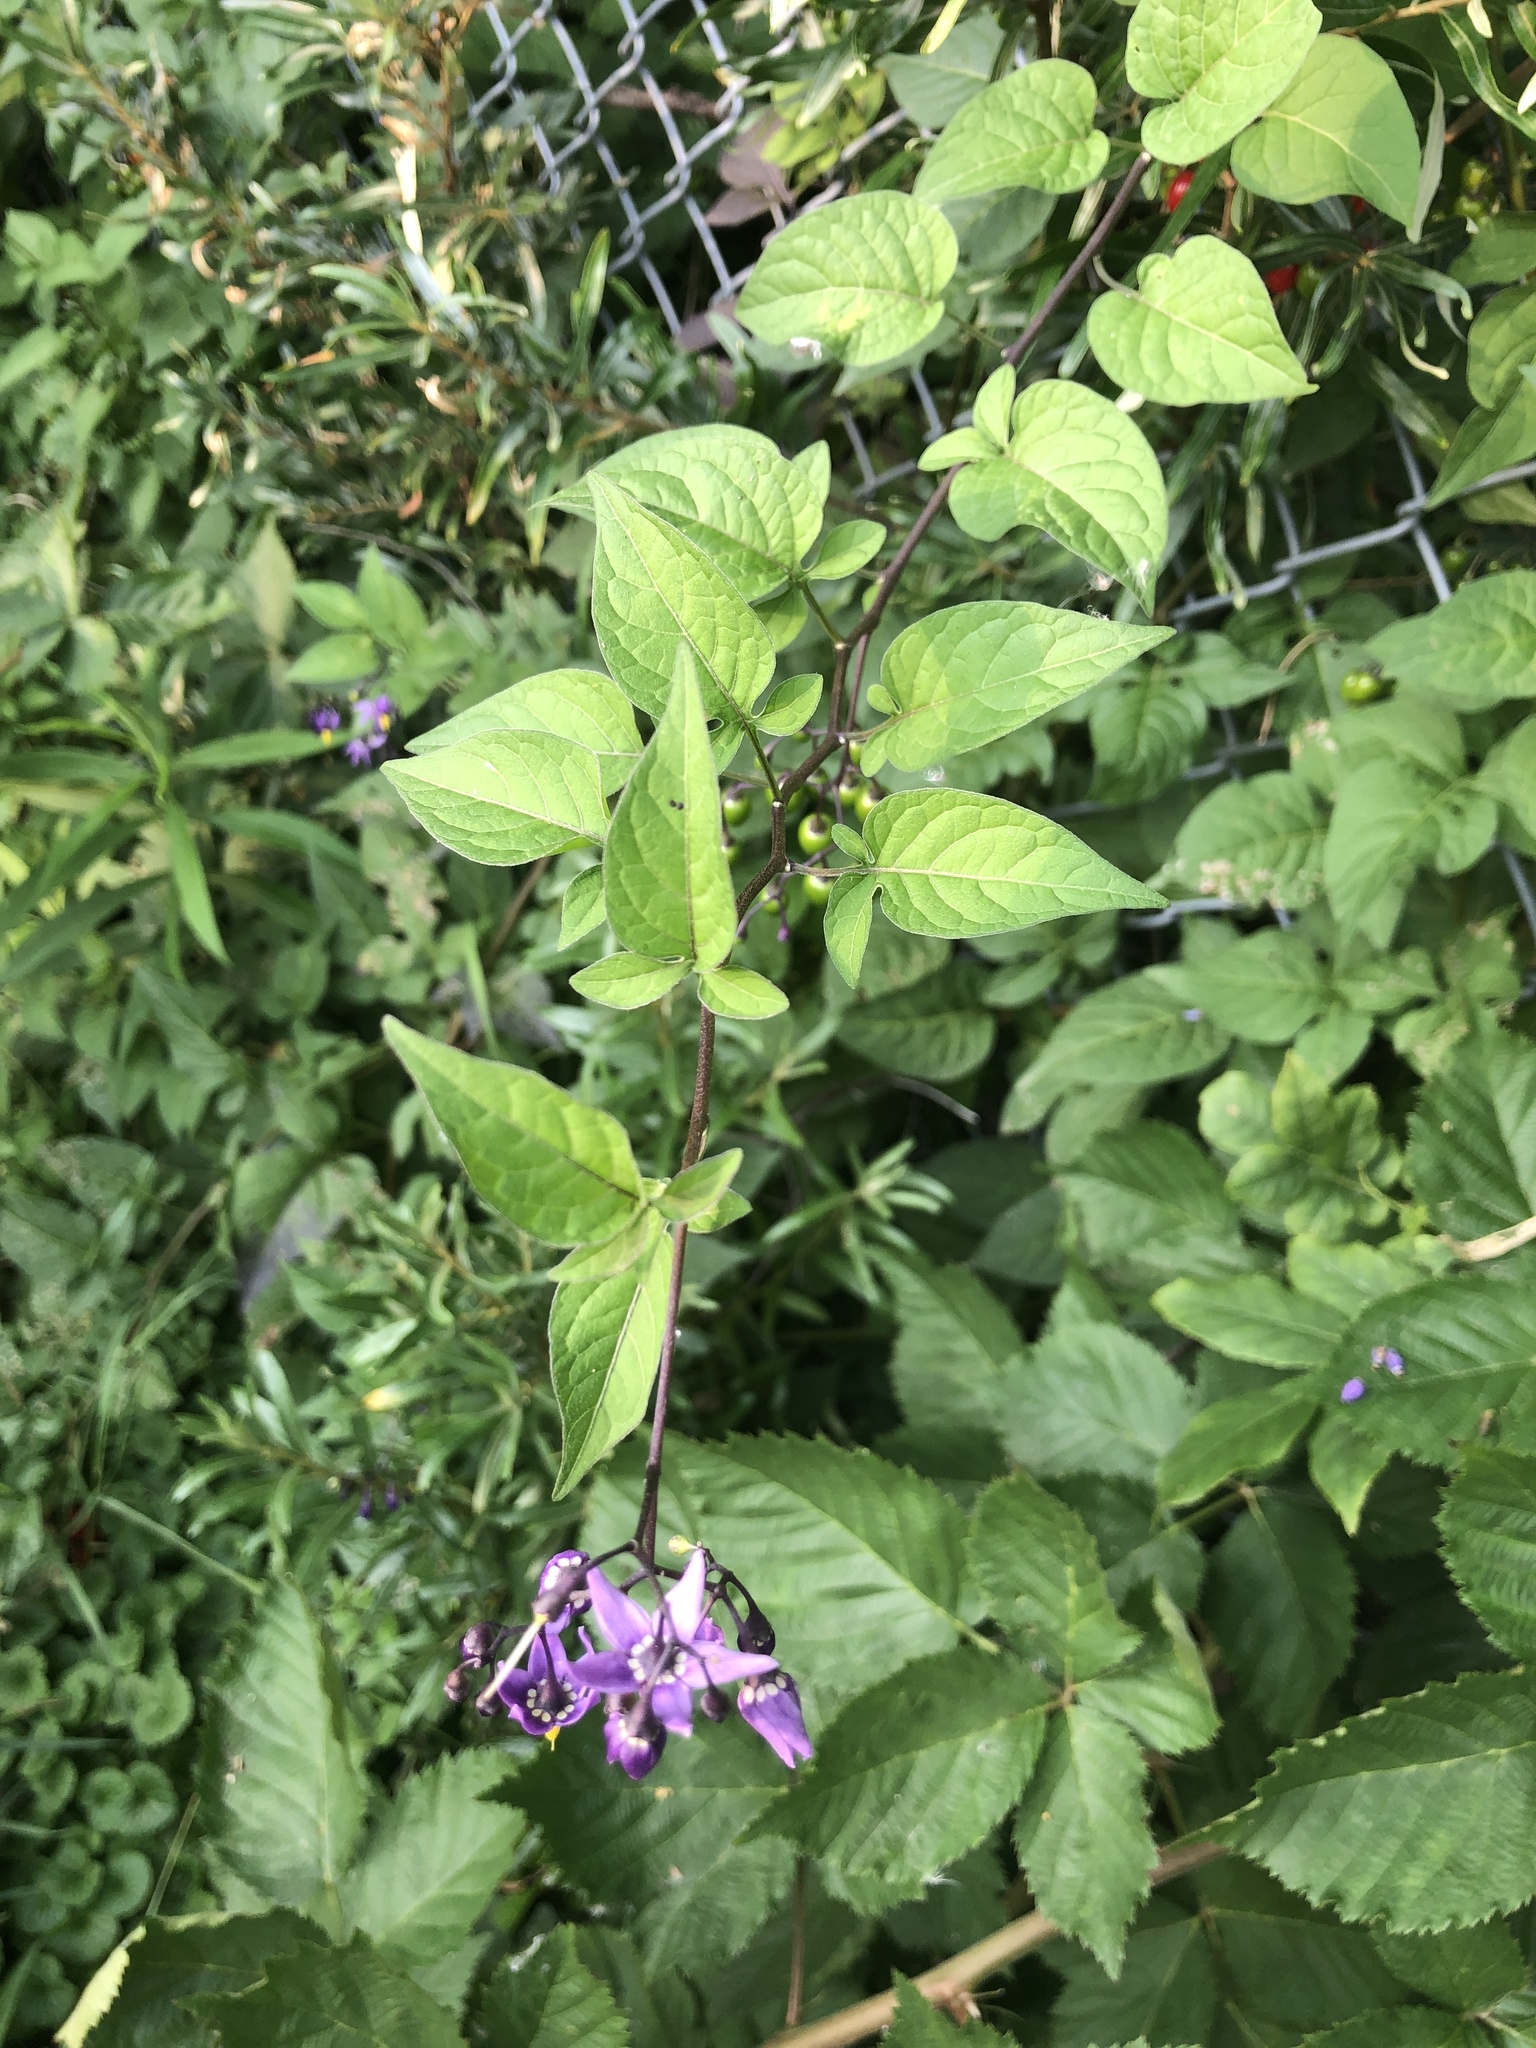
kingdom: Plantae
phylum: Tracheophyta
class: Magnoliopsida
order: Solanales
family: Solanaceae
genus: Solanum
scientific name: Solanum dulcamara
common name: Climbing nightshade
